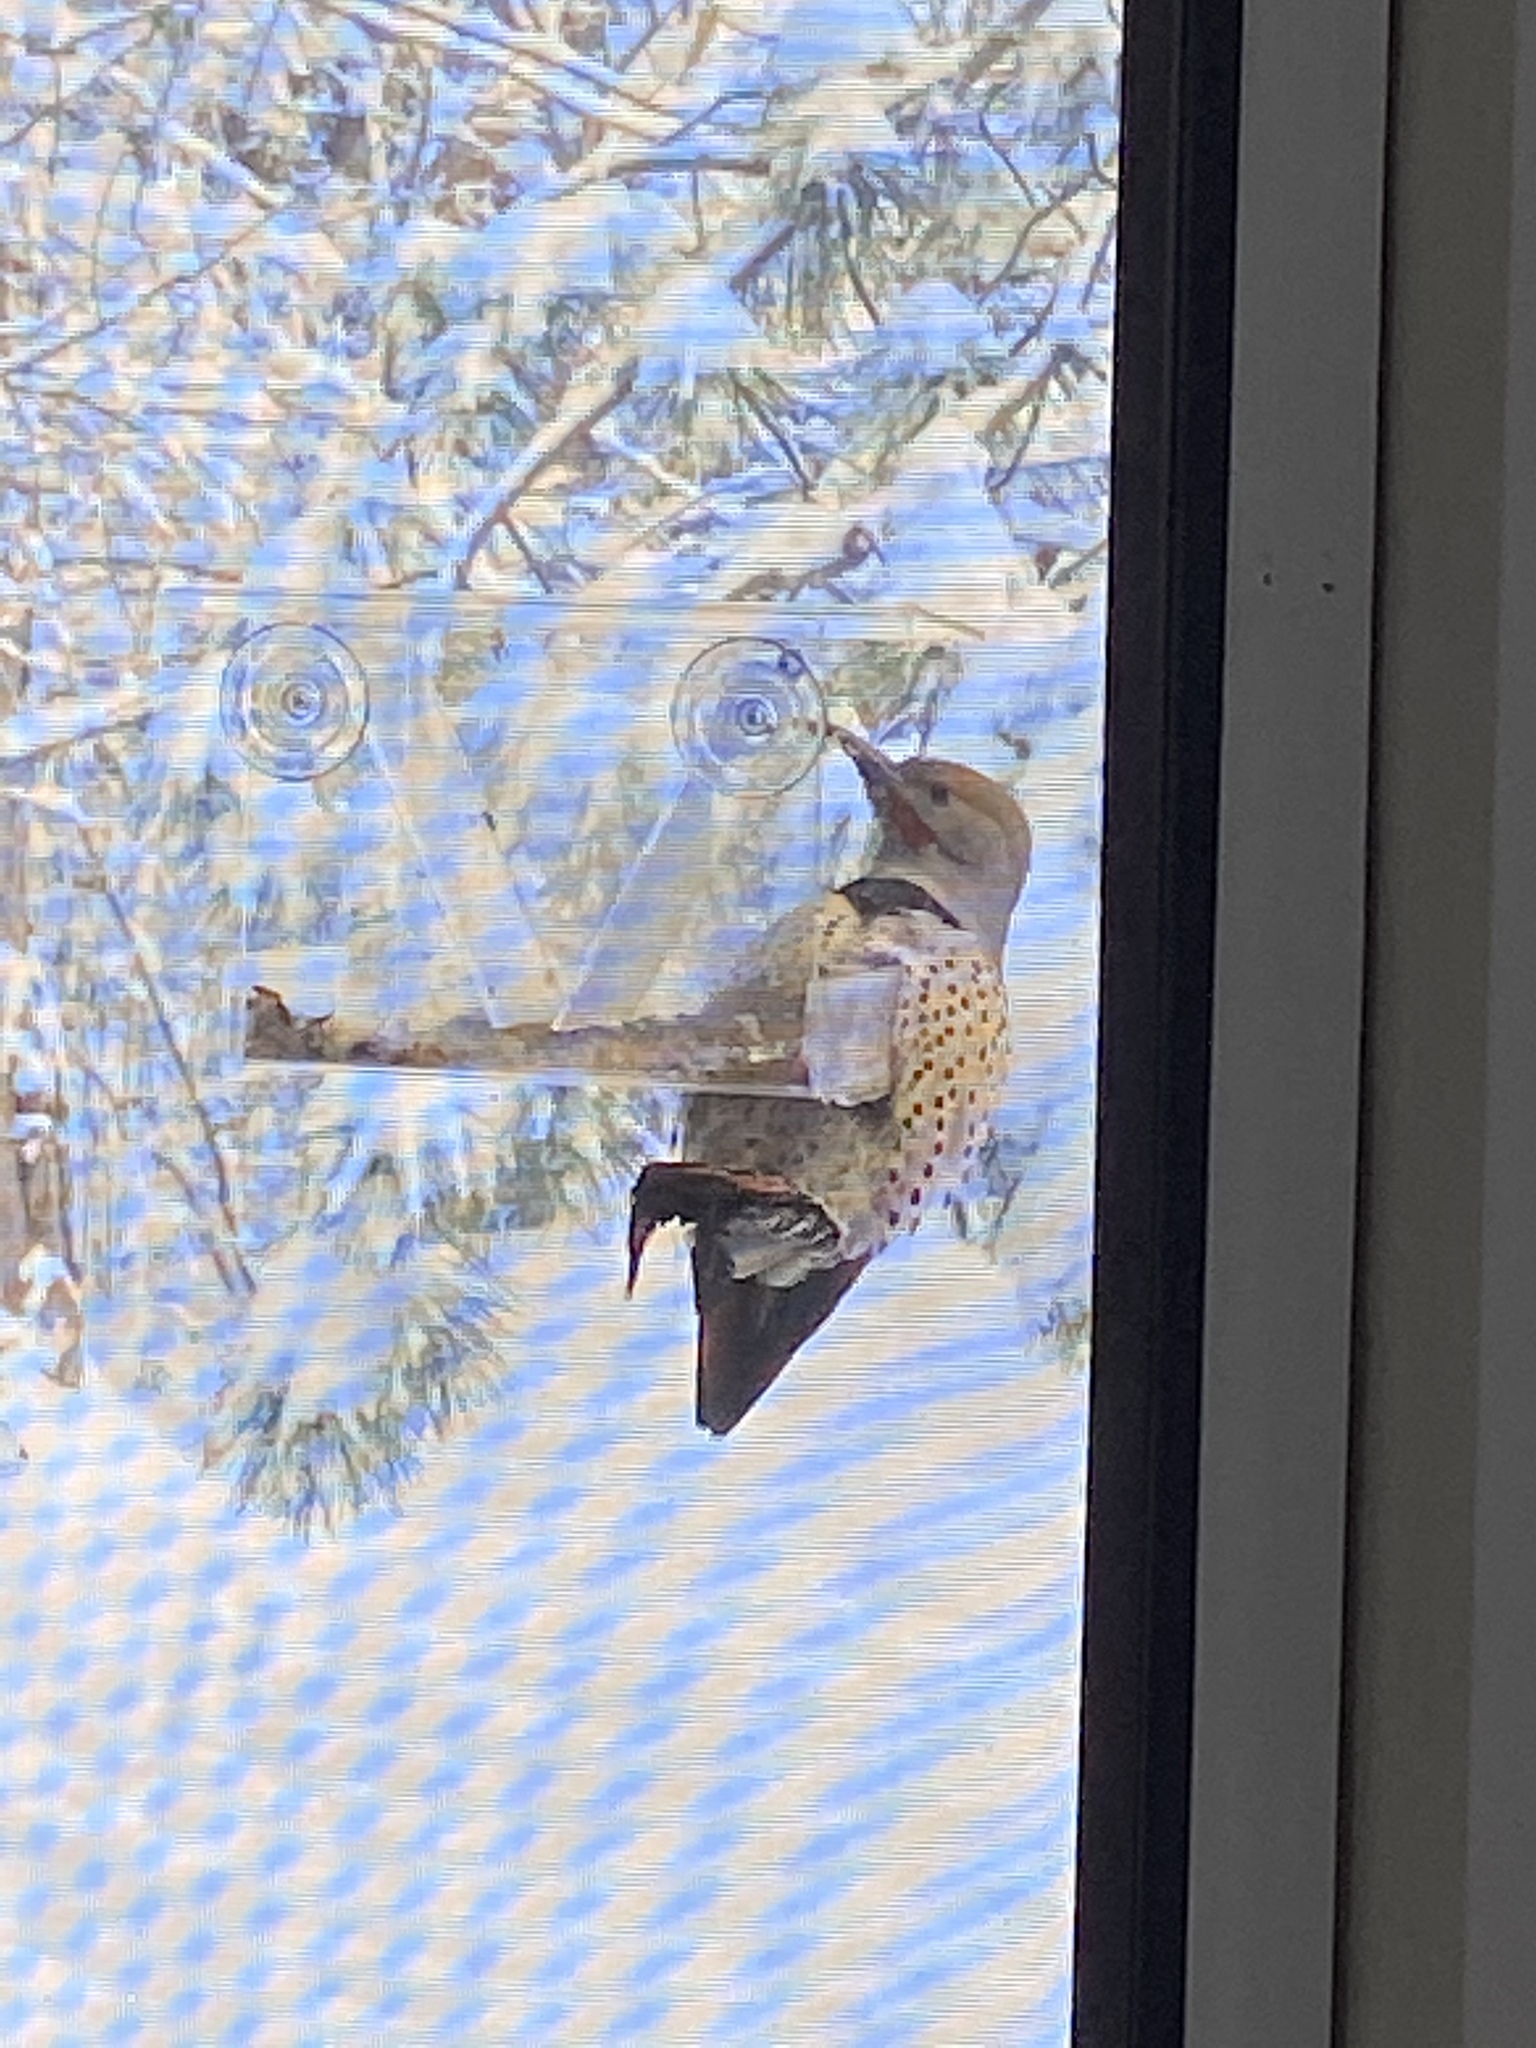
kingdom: Animalia
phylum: Chordata
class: Aves
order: Piciformes
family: Picidae
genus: Colaptes
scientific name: Colaptes auratus
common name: Northern flicker
